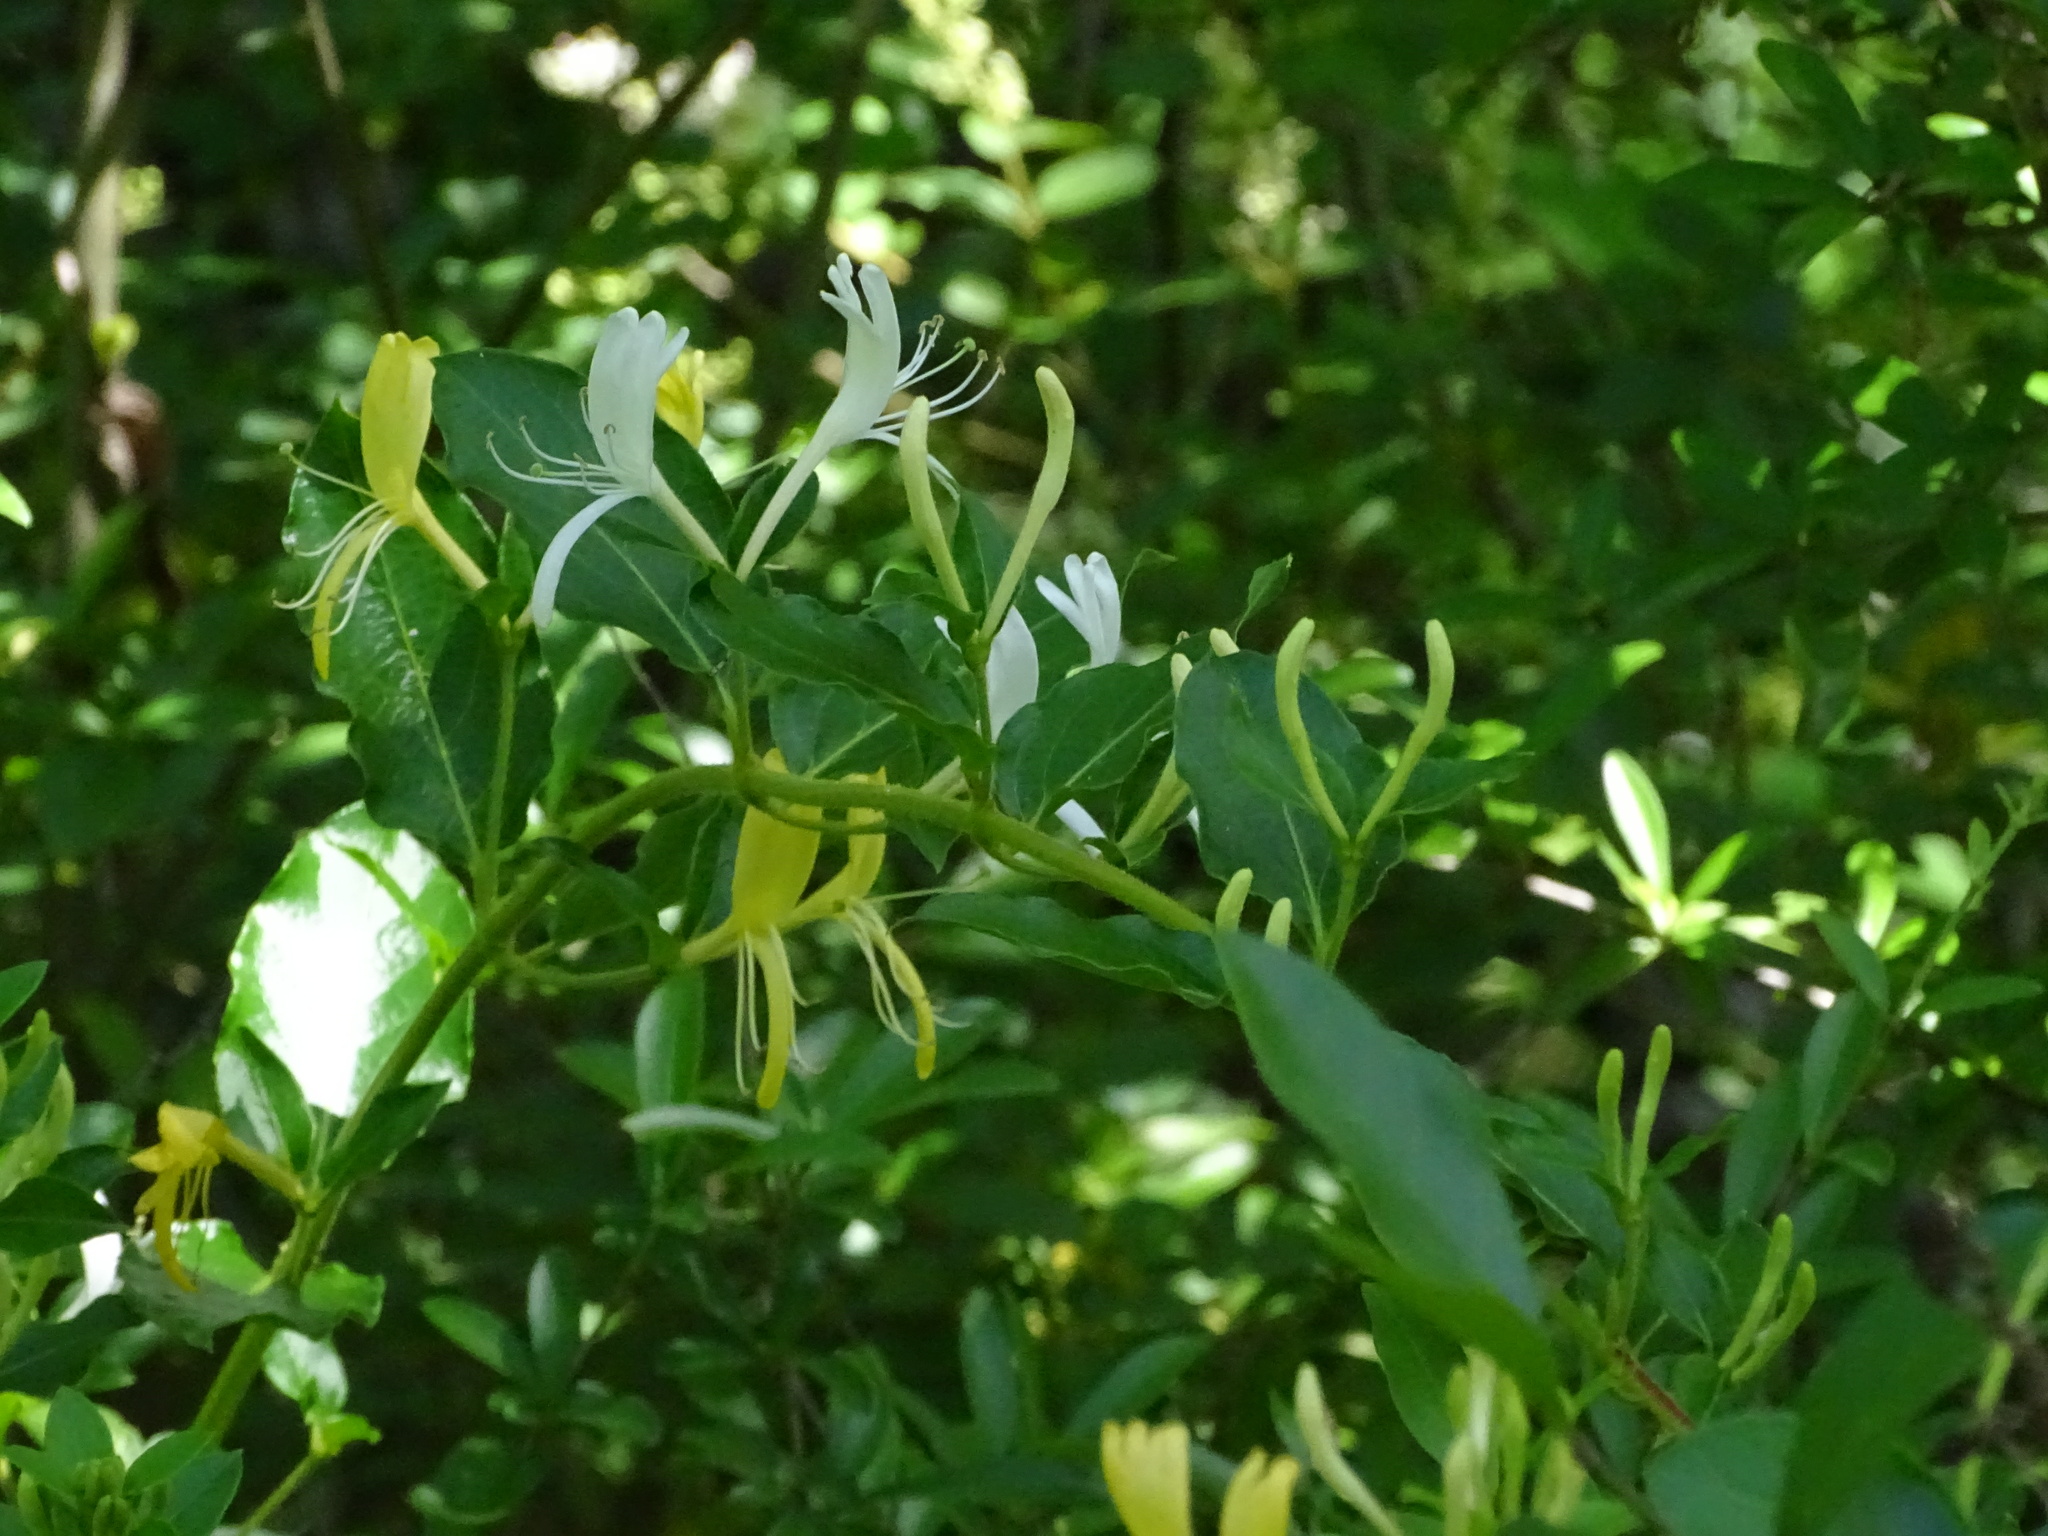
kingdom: Plantae
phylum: Tracheophyta
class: Magnoliopsida
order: Dipsacales
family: Caprifoliaceae
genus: Lonicera
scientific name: Lonicera japonica
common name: Japanese honeysuckle
